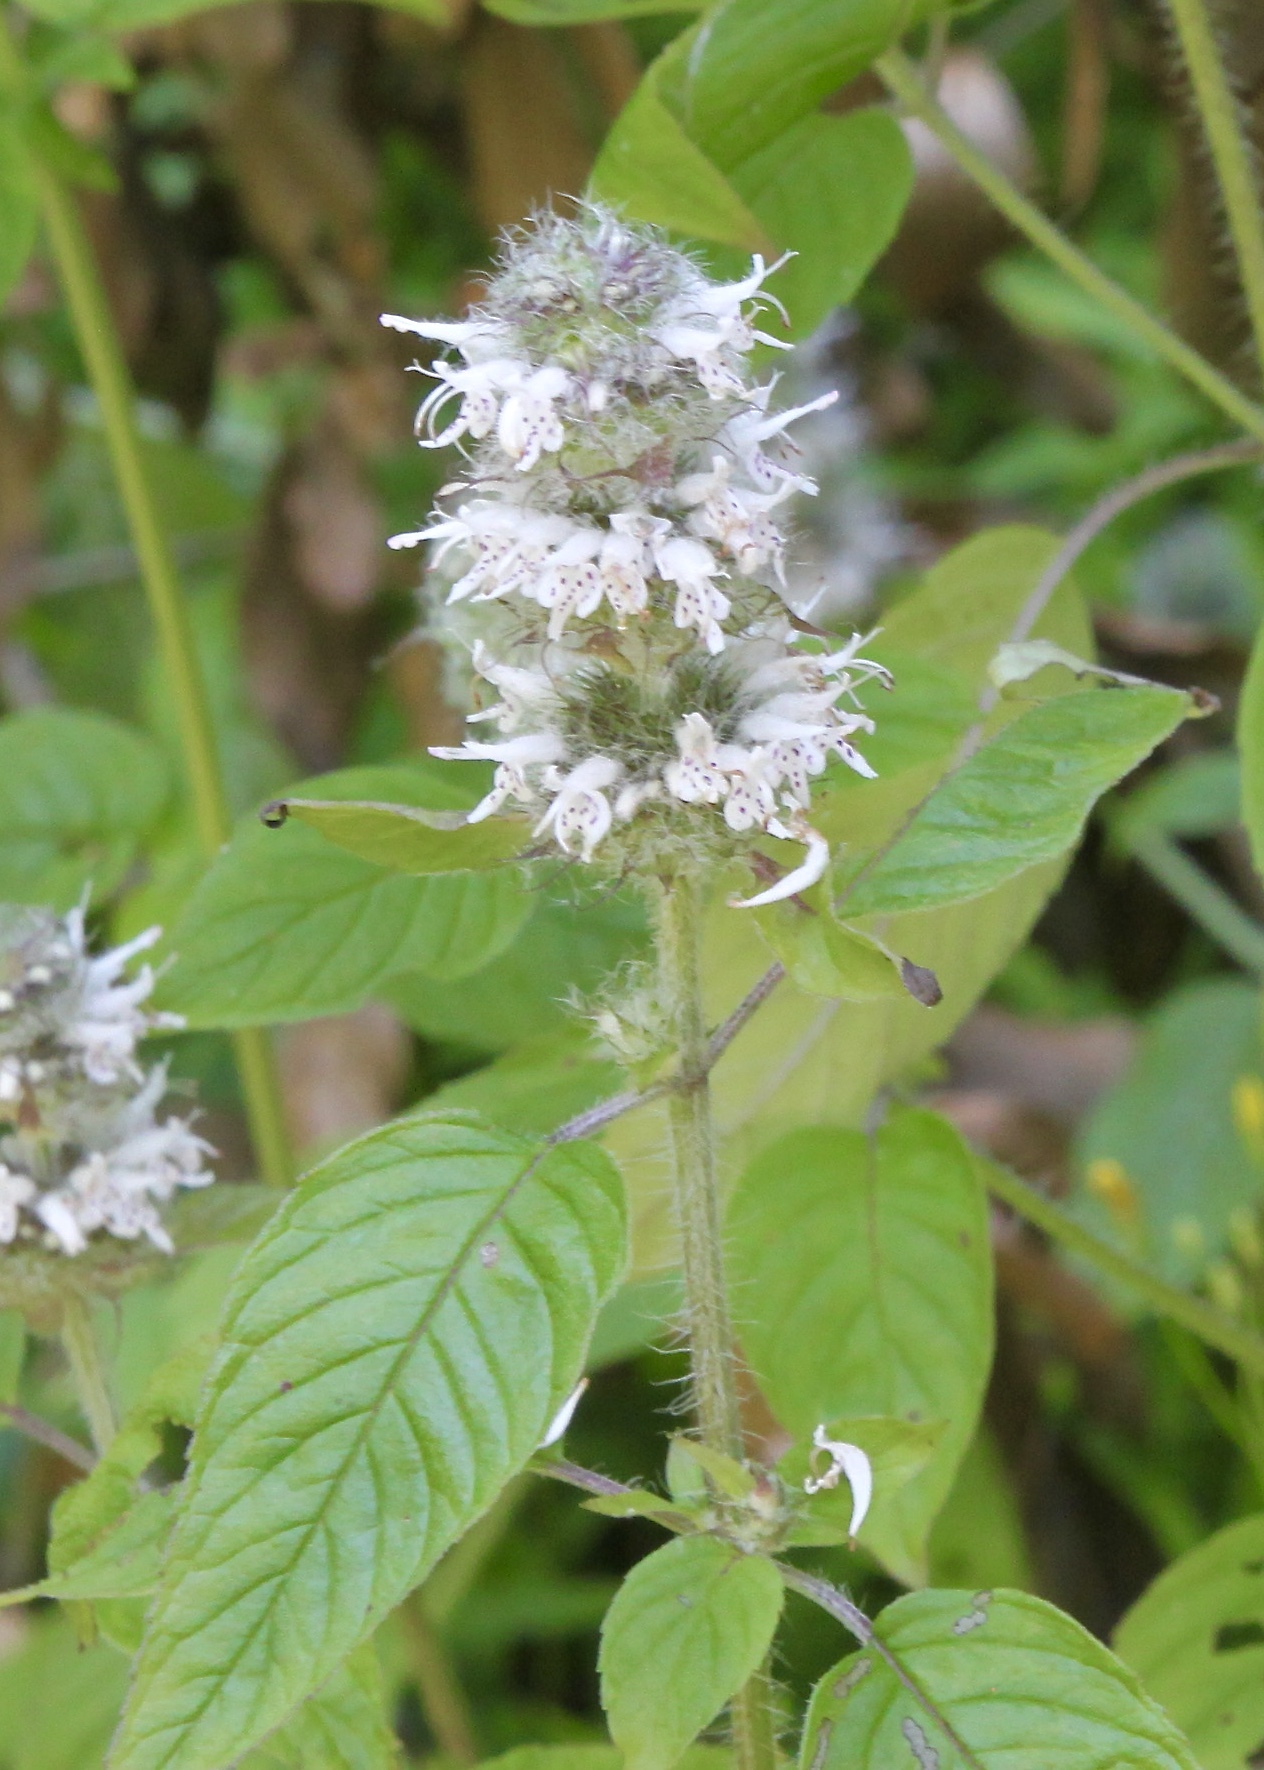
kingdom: Plantae
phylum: Tracheophyta
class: Magnoliopsida
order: Lamiales
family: Lamiaceae
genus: Blephilia
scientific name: Blephilia hirsuta
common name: Hairy blephilia
